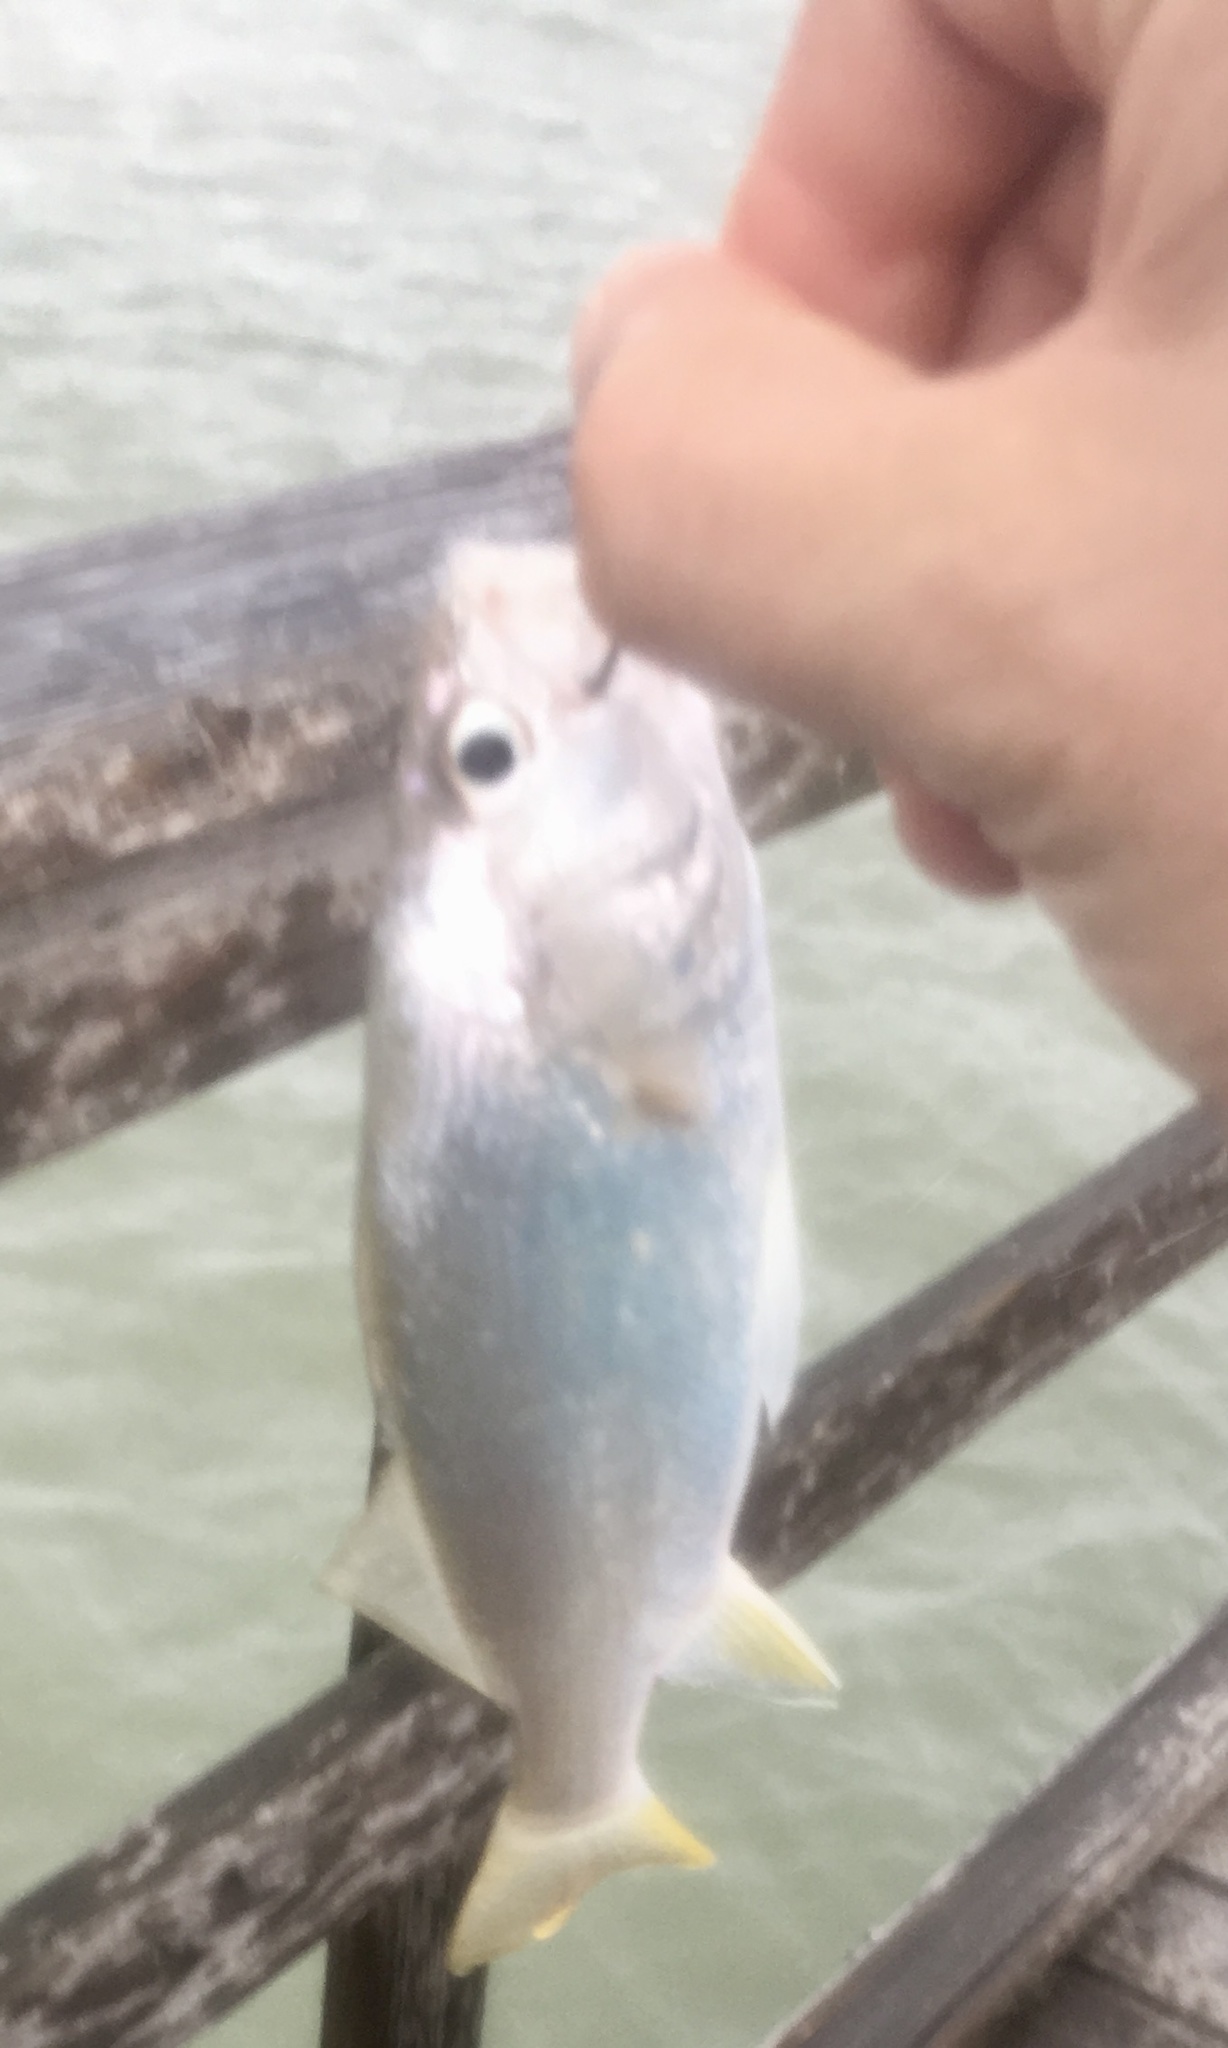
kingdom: Animalia
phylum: Chordata
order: Perciformes
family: Sciaenidae
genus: Bairdiella
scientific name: Bairdiella chrysoura
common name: Silver perch
